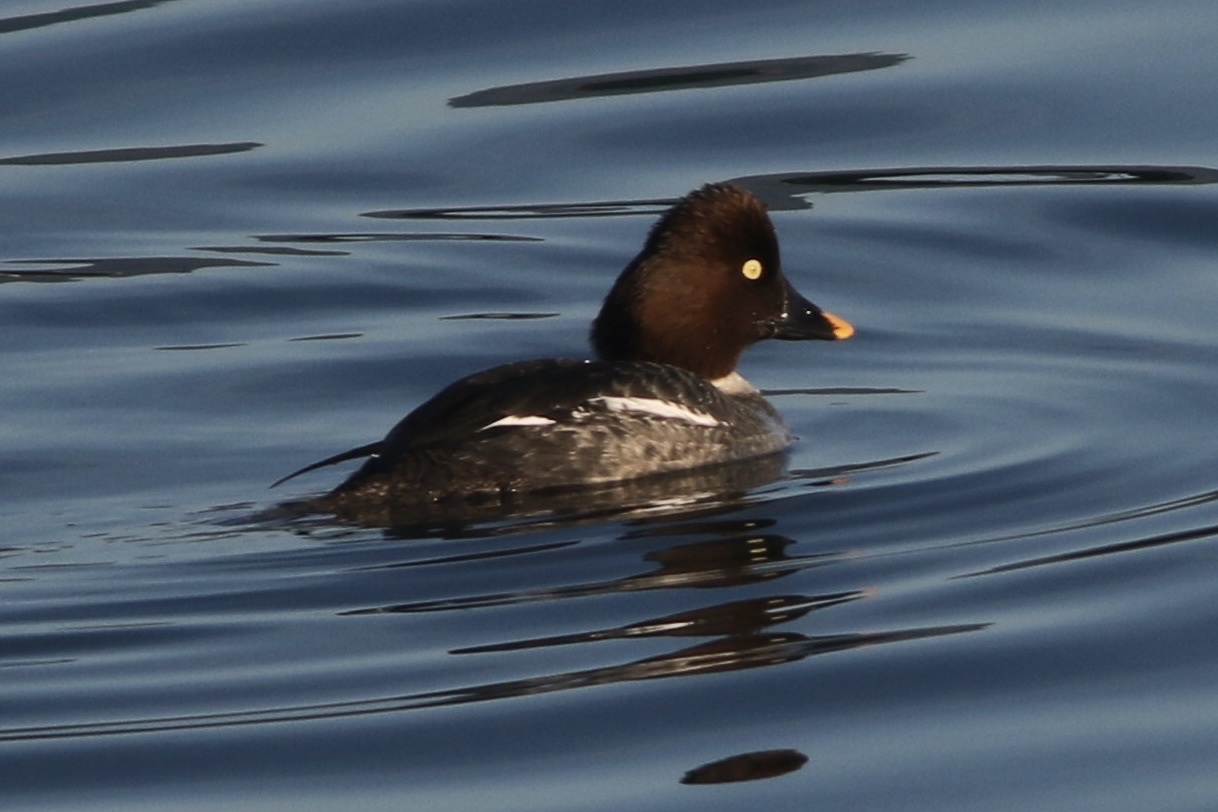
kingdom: Animalia
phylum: Chordata
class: Aves
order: Anseriformes
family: Anatidae
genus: Bucephala
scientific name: Bucephala clangula
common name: Common goldeneye
